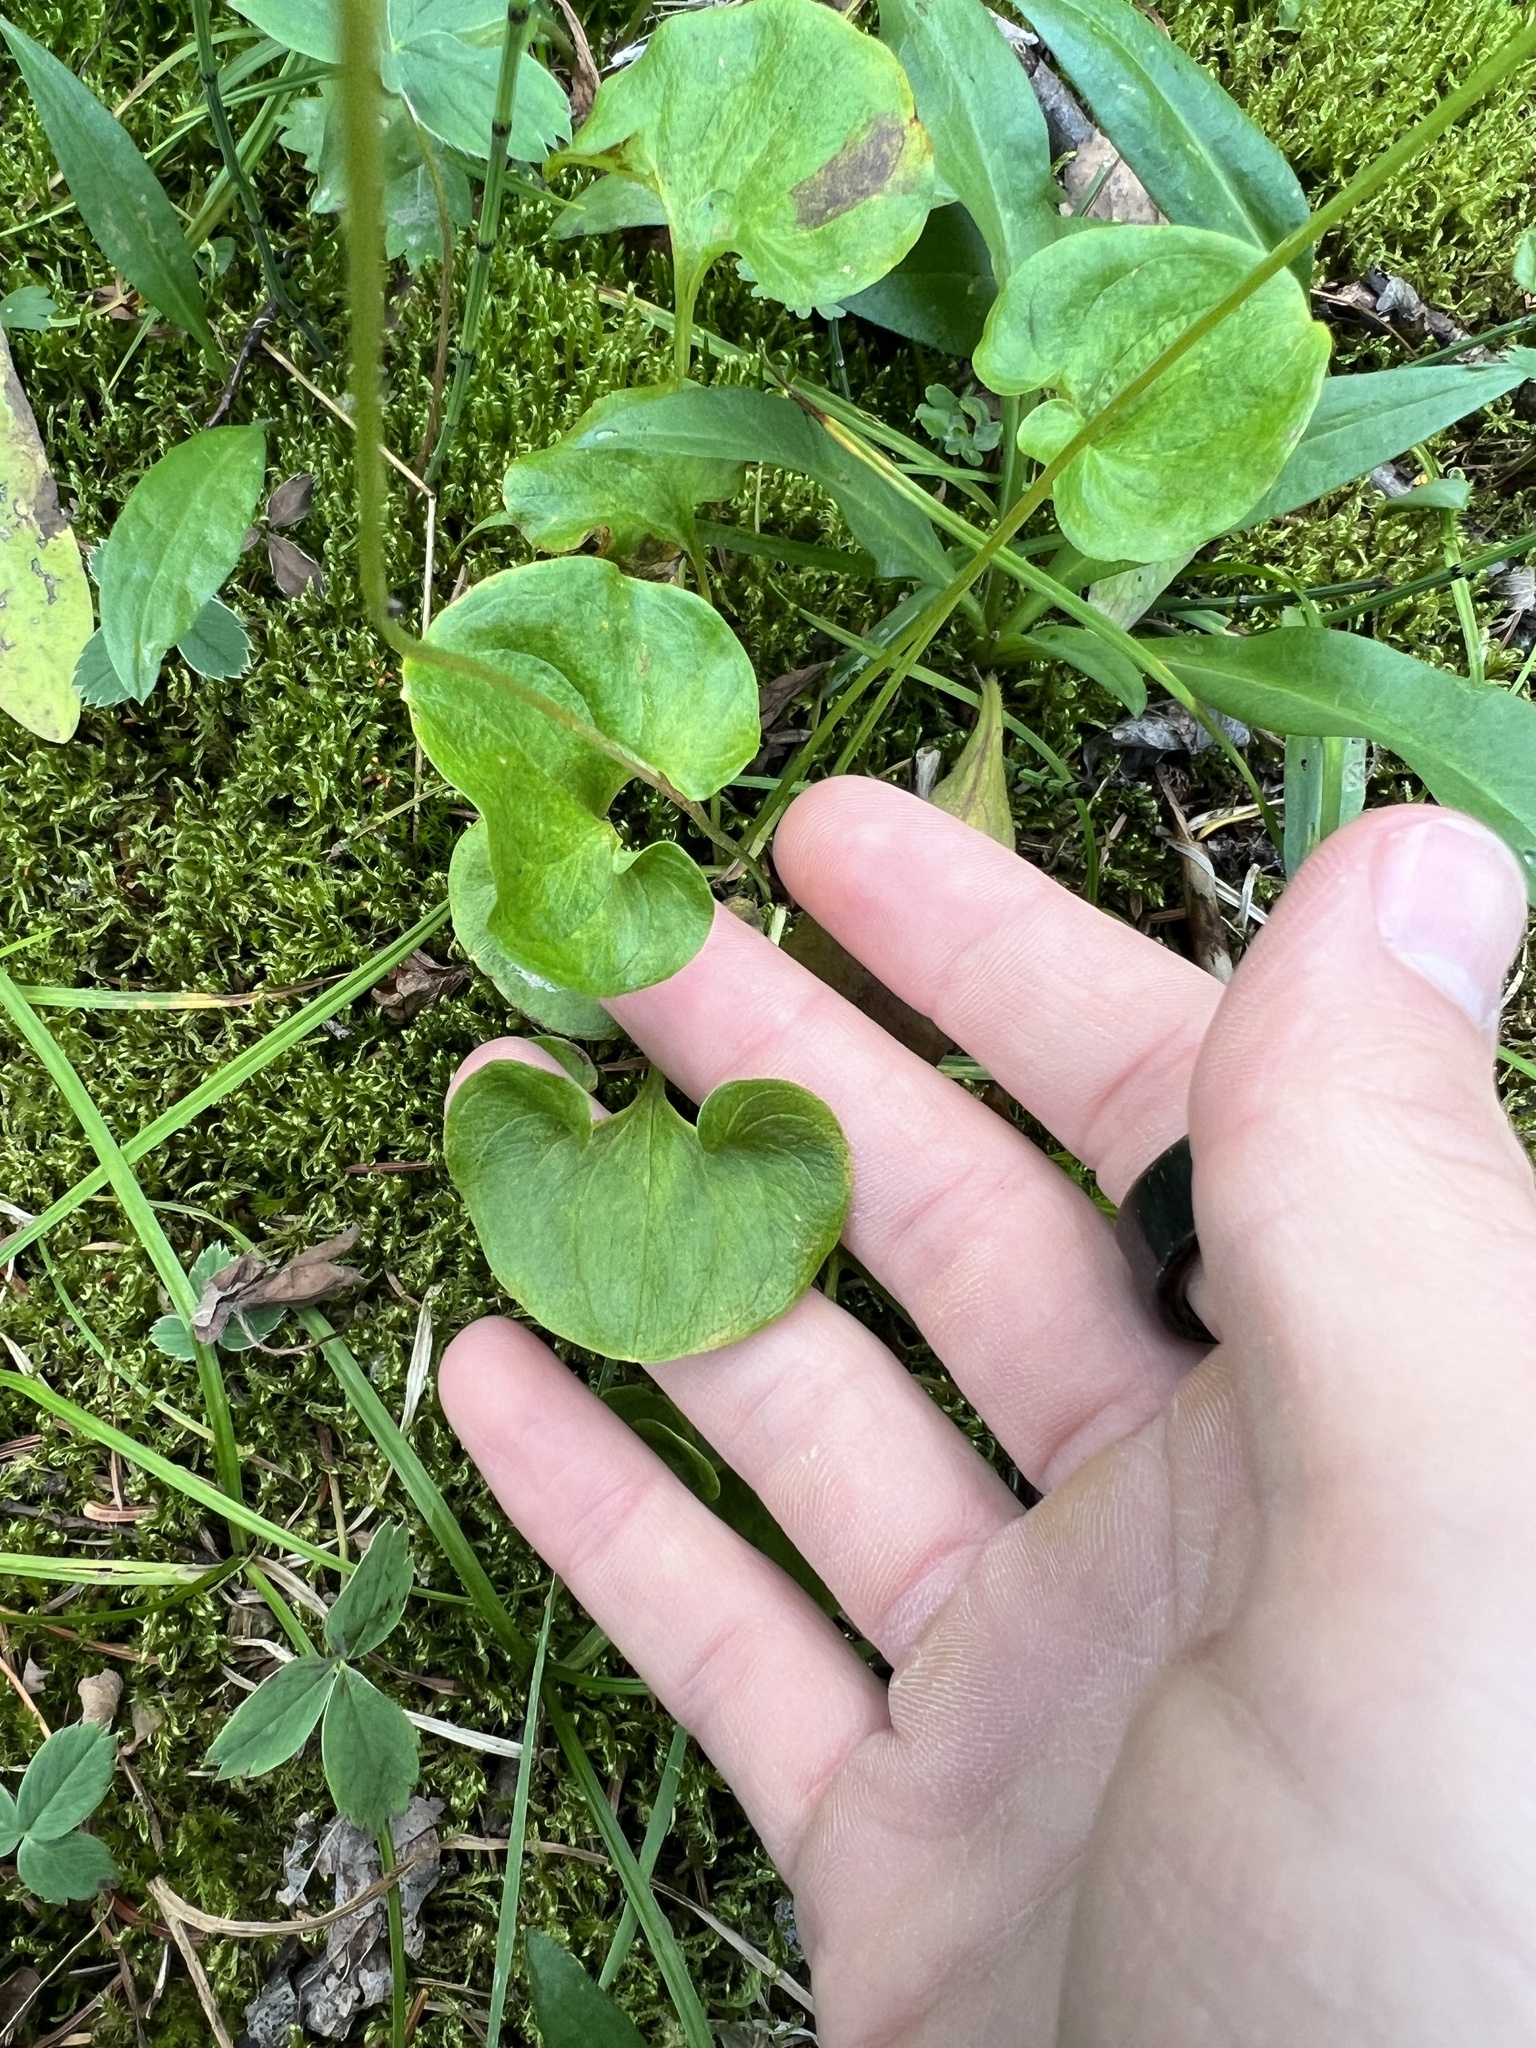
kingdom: Plantae
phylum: Tracheophyta
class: Magnoliopsida
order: Celastrales
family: Parnassiaceae
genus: Parnassia
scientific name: Parnassia fimbriata
